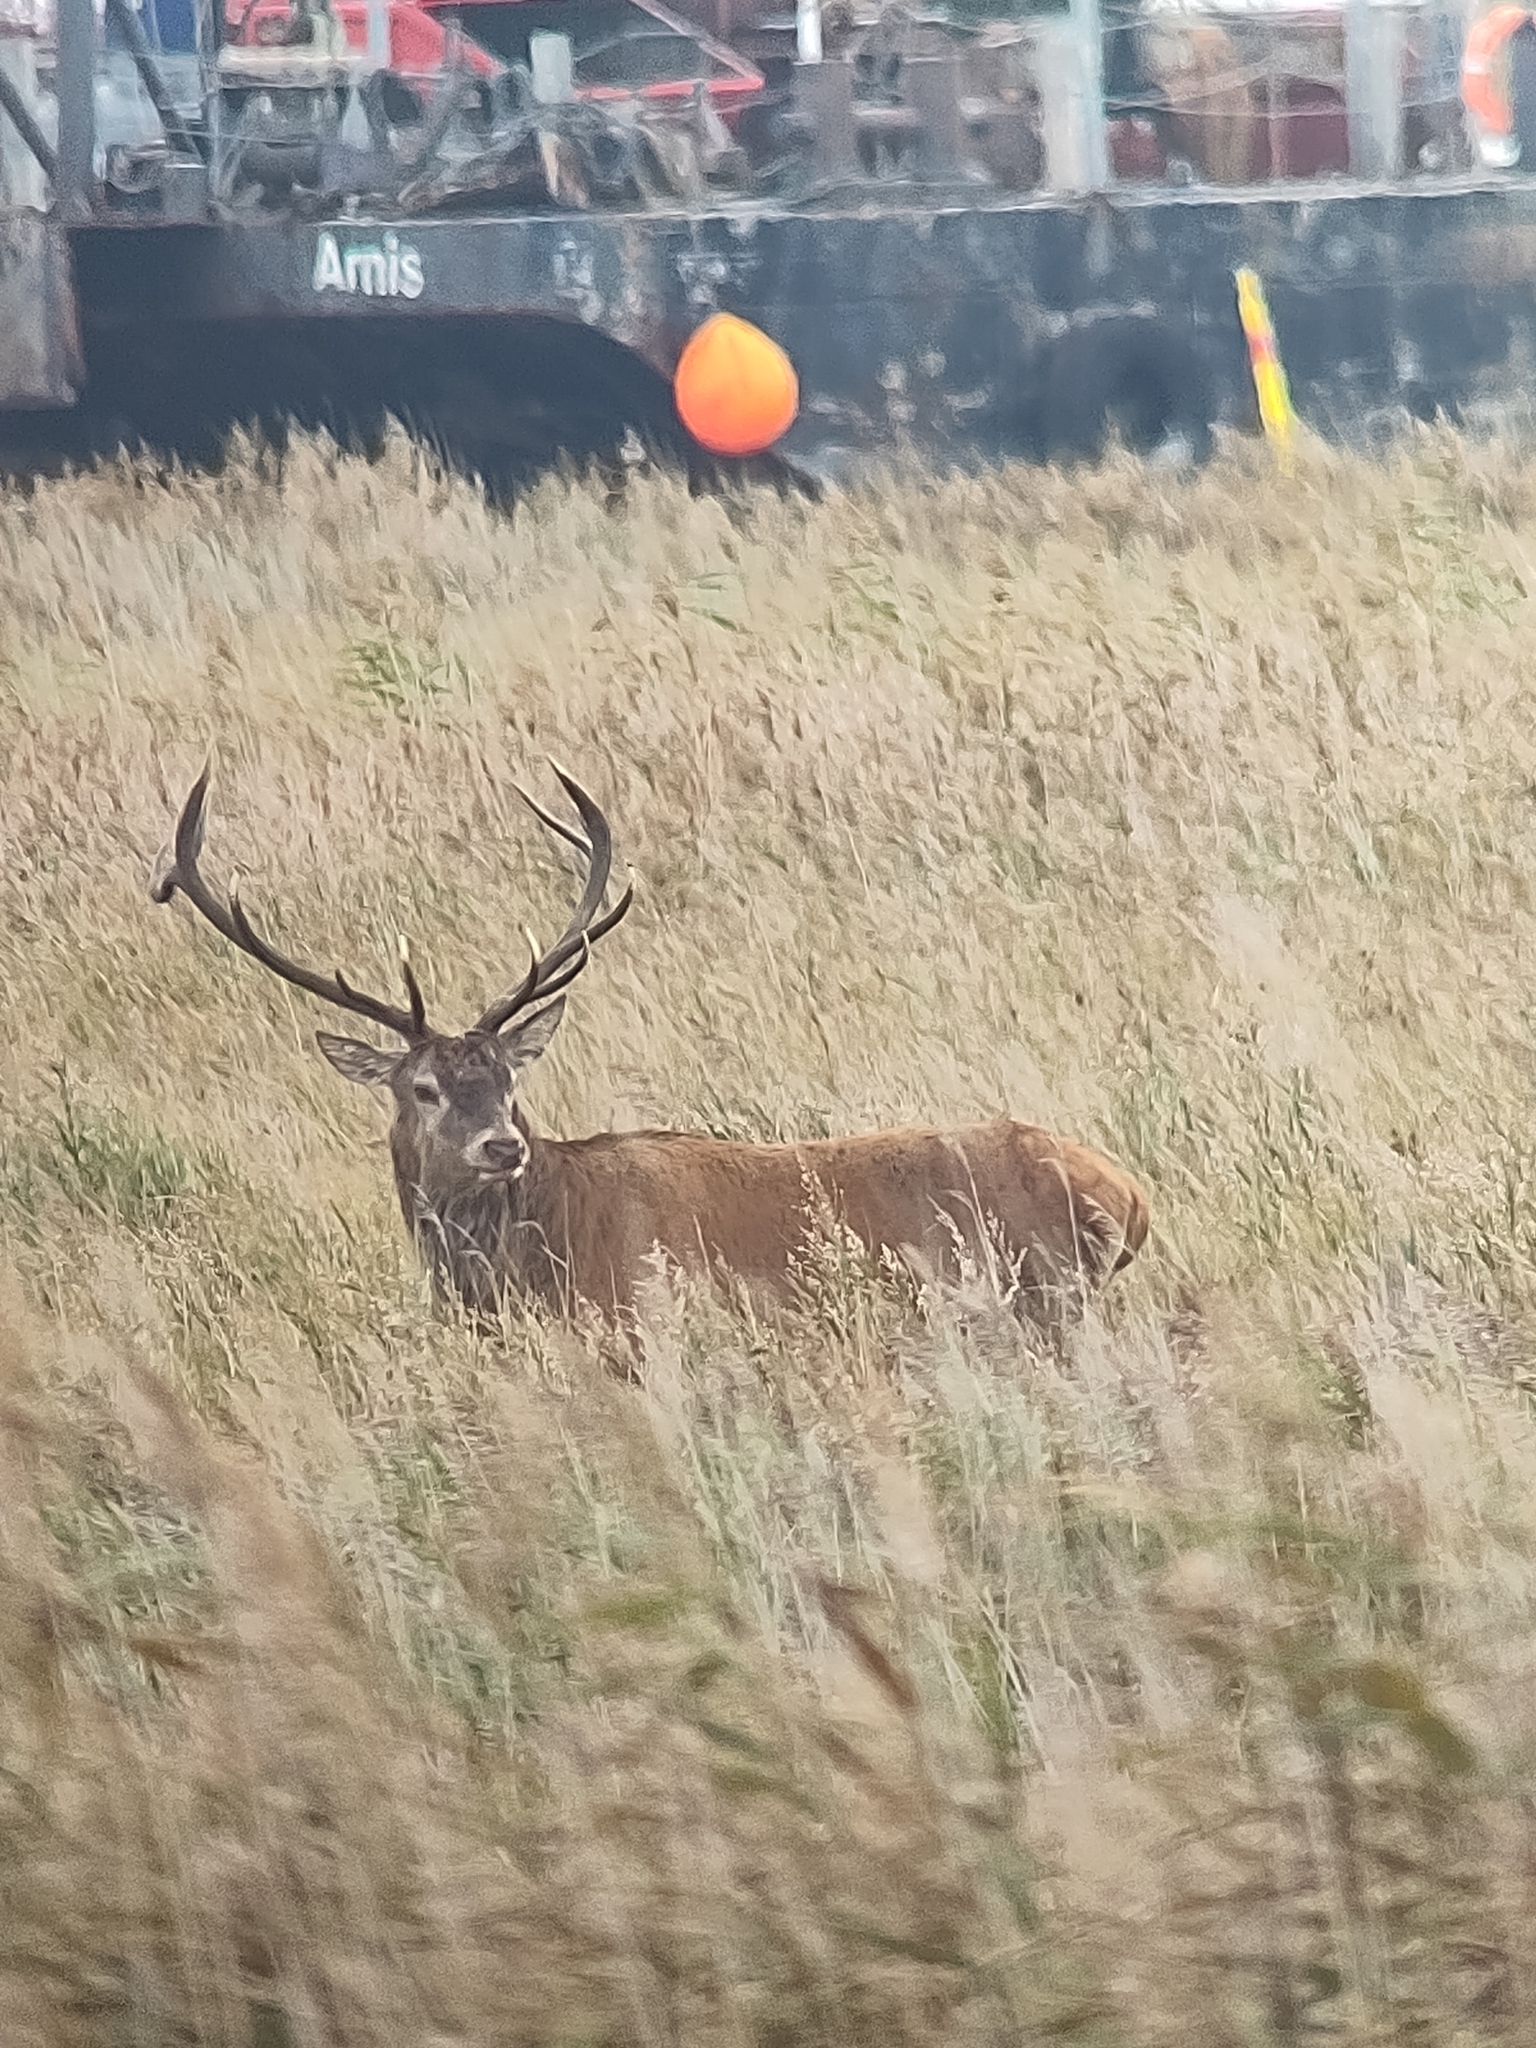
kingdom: Animalia
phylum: Chordata
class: Mammalia
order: Artiodactyla
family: Cervidae
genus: Cervus
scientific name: Cervus elaphus
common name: Red deer
